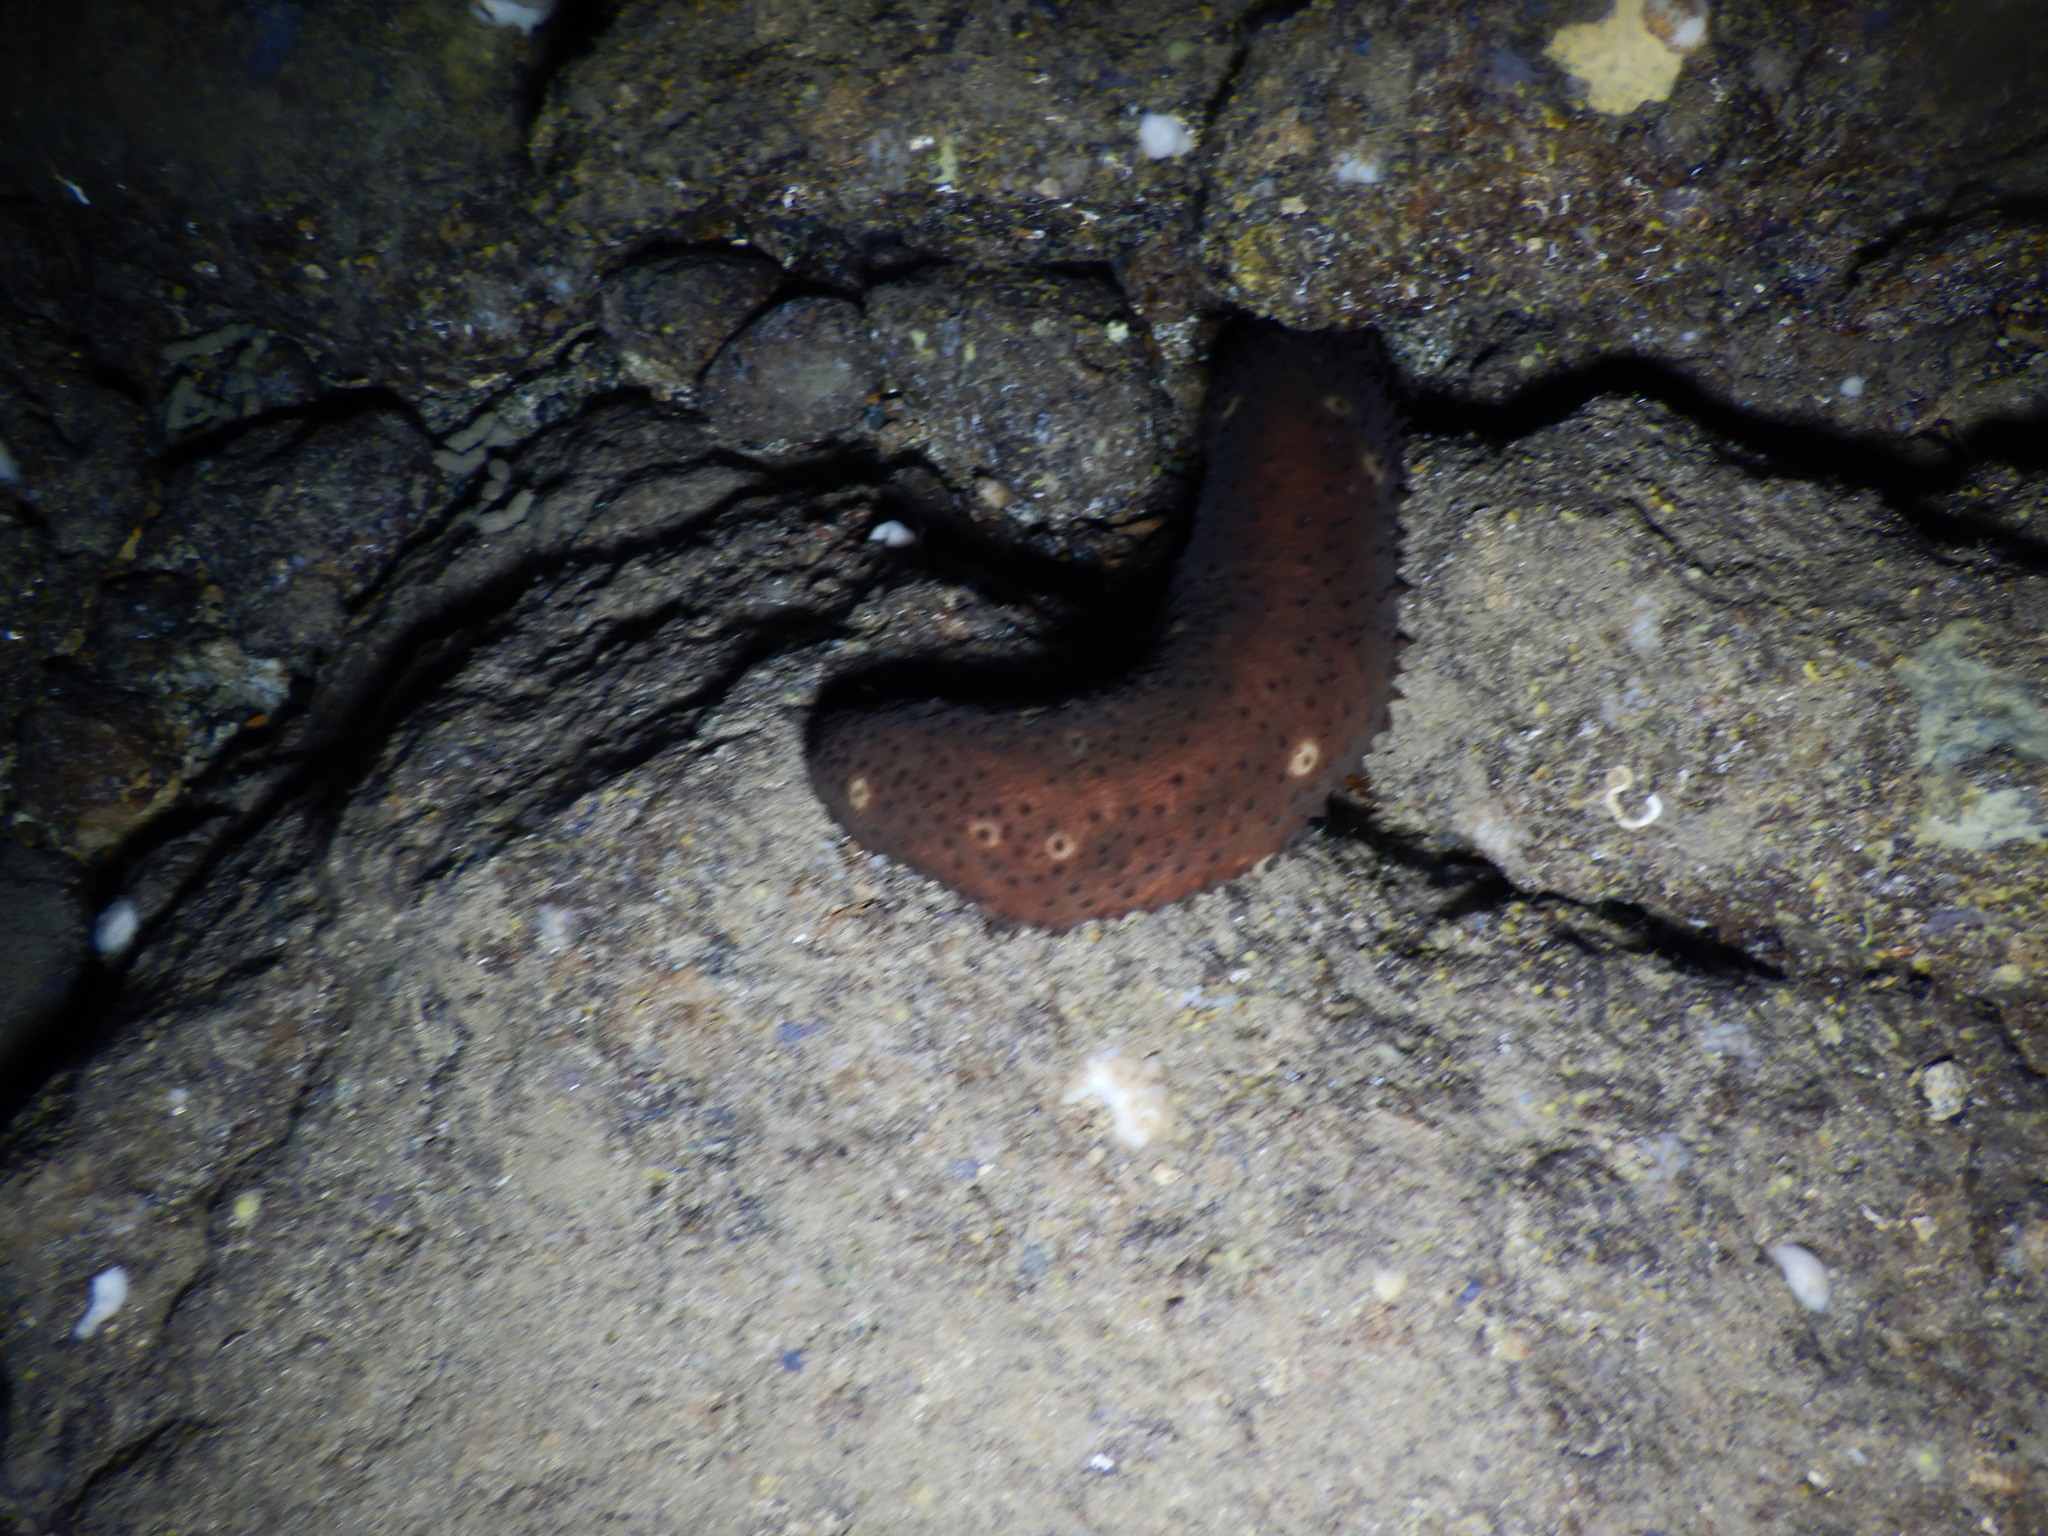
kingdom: Animalia
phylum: Echinodermata
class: Holothuroidea
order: Holothuriida
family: Holothuriidae
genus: Holothuria
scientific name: Holothuria sanctori
